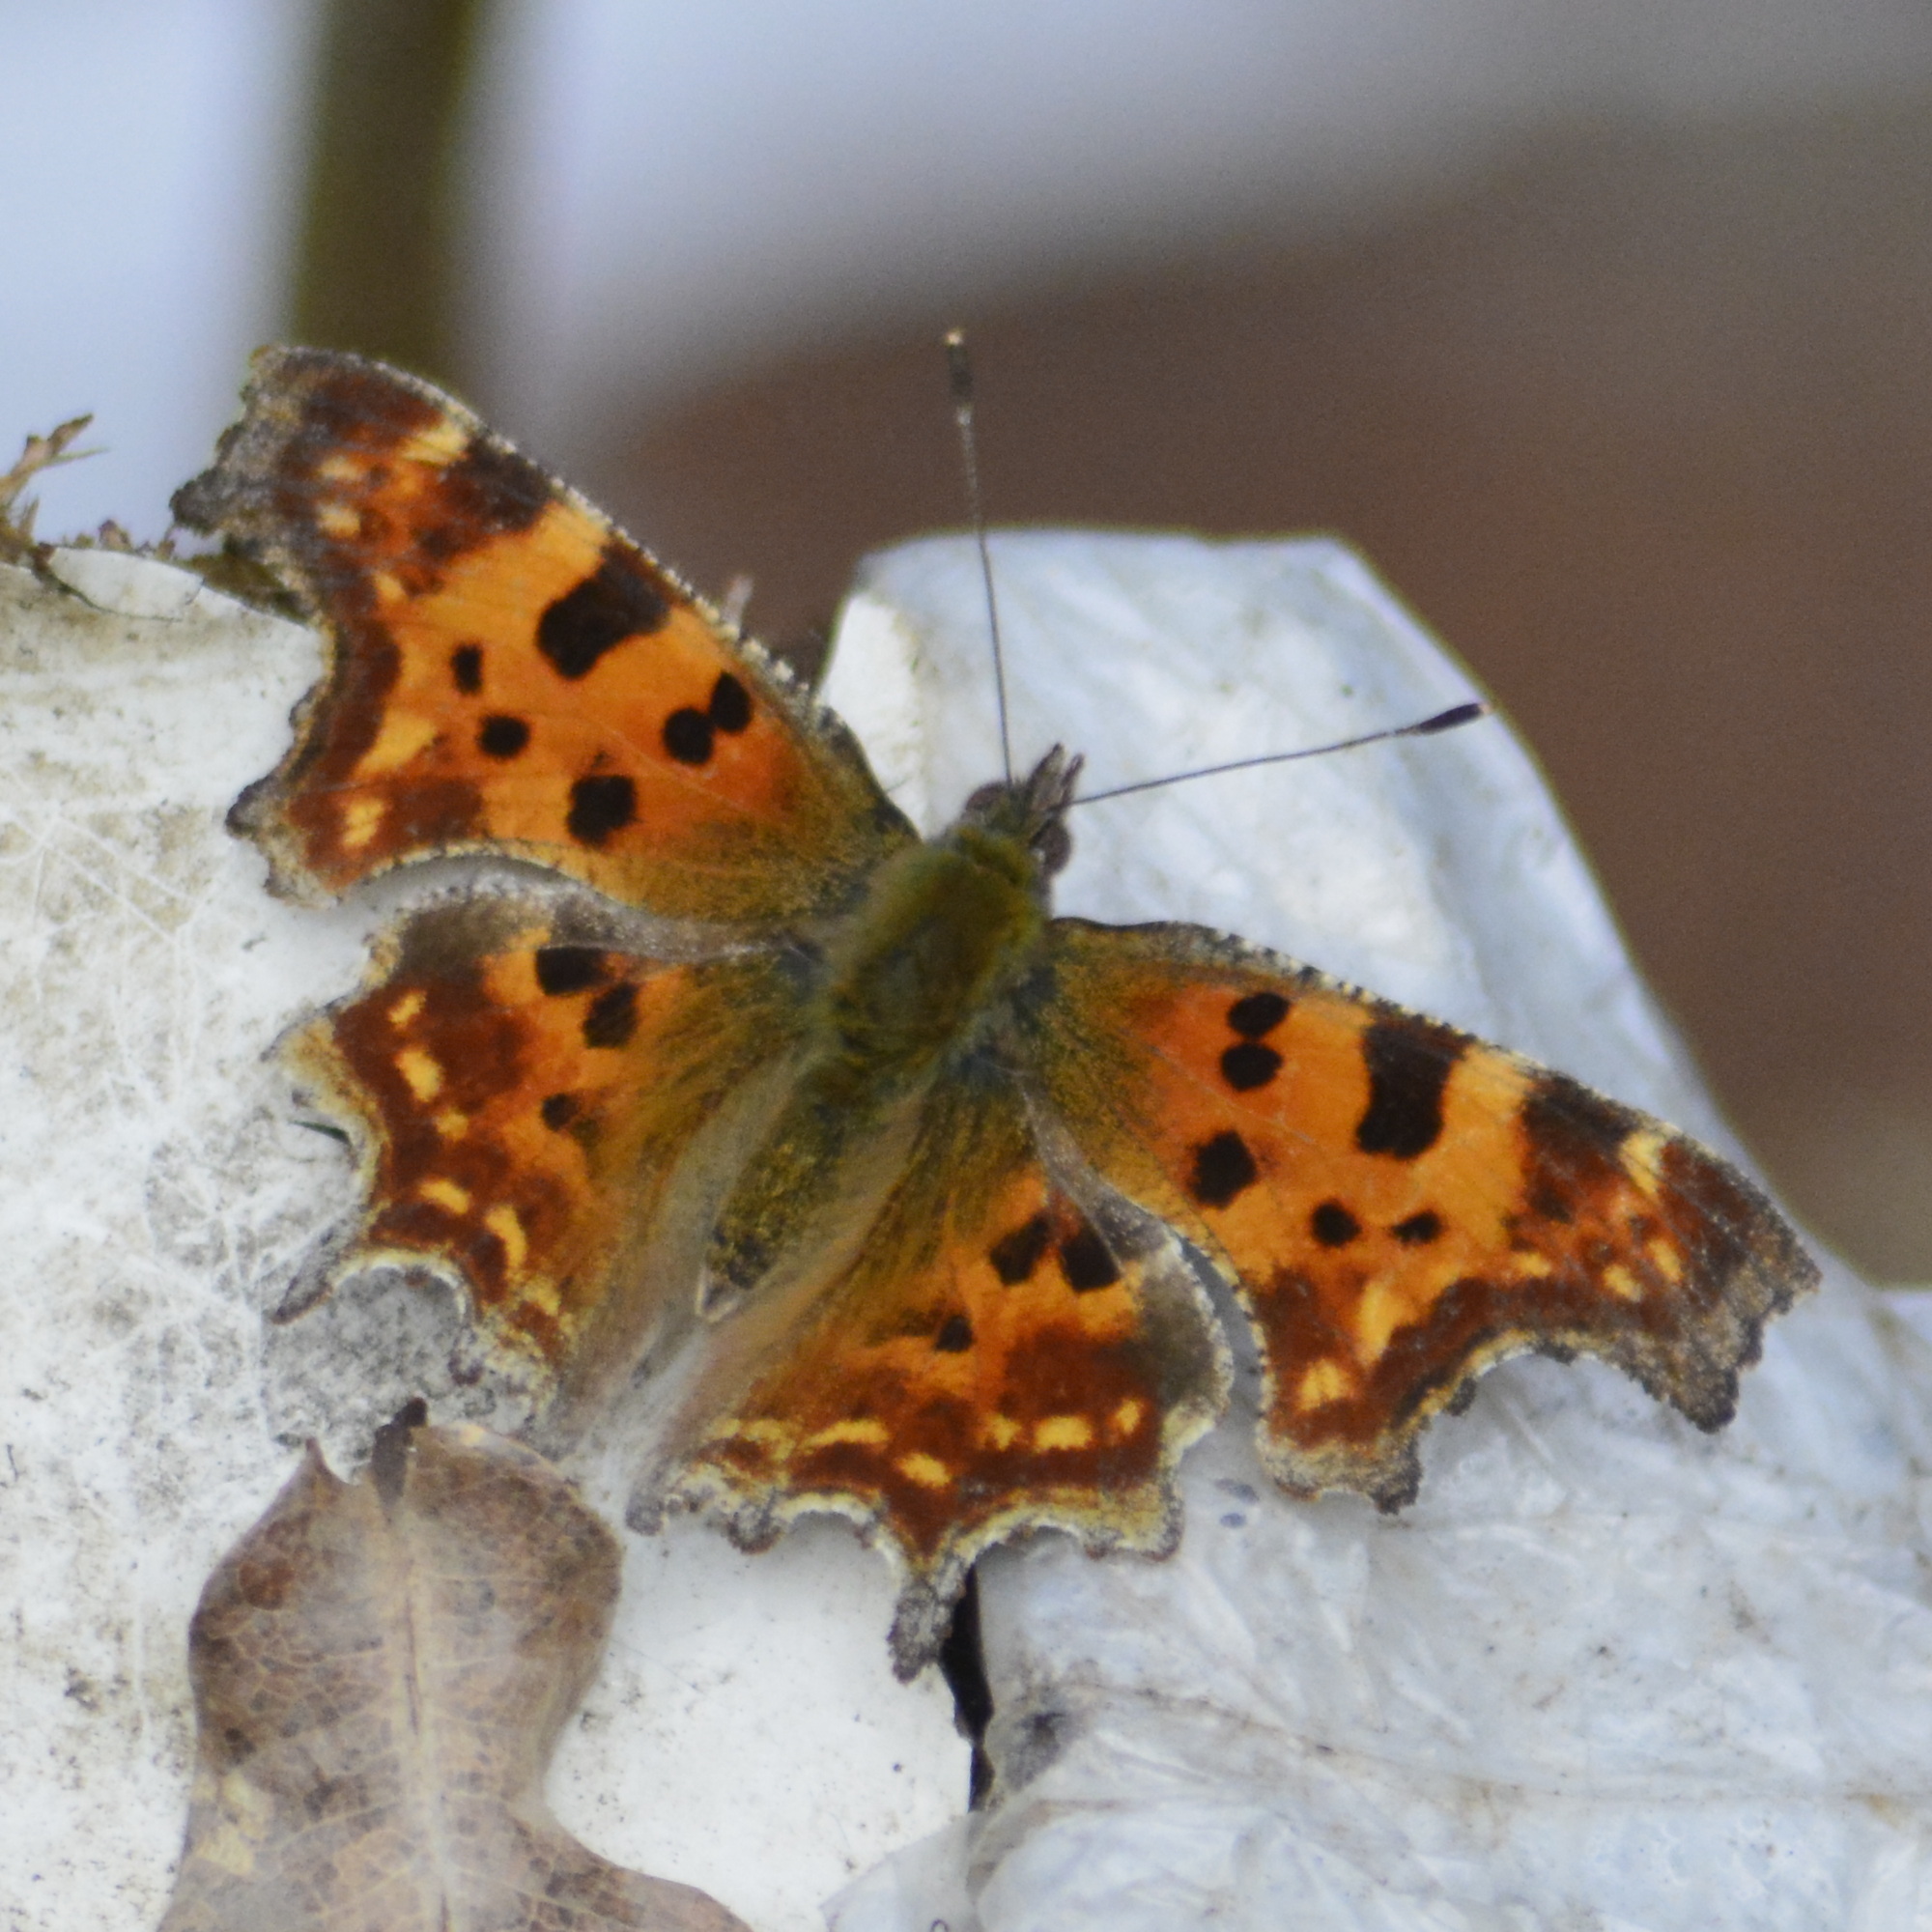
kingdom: Animalia
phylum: Arthropoda
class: Insecta
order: Lepidoptera
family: Nymphalidae
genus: Polygonia
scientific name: Polygonia c-album
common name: Comma
